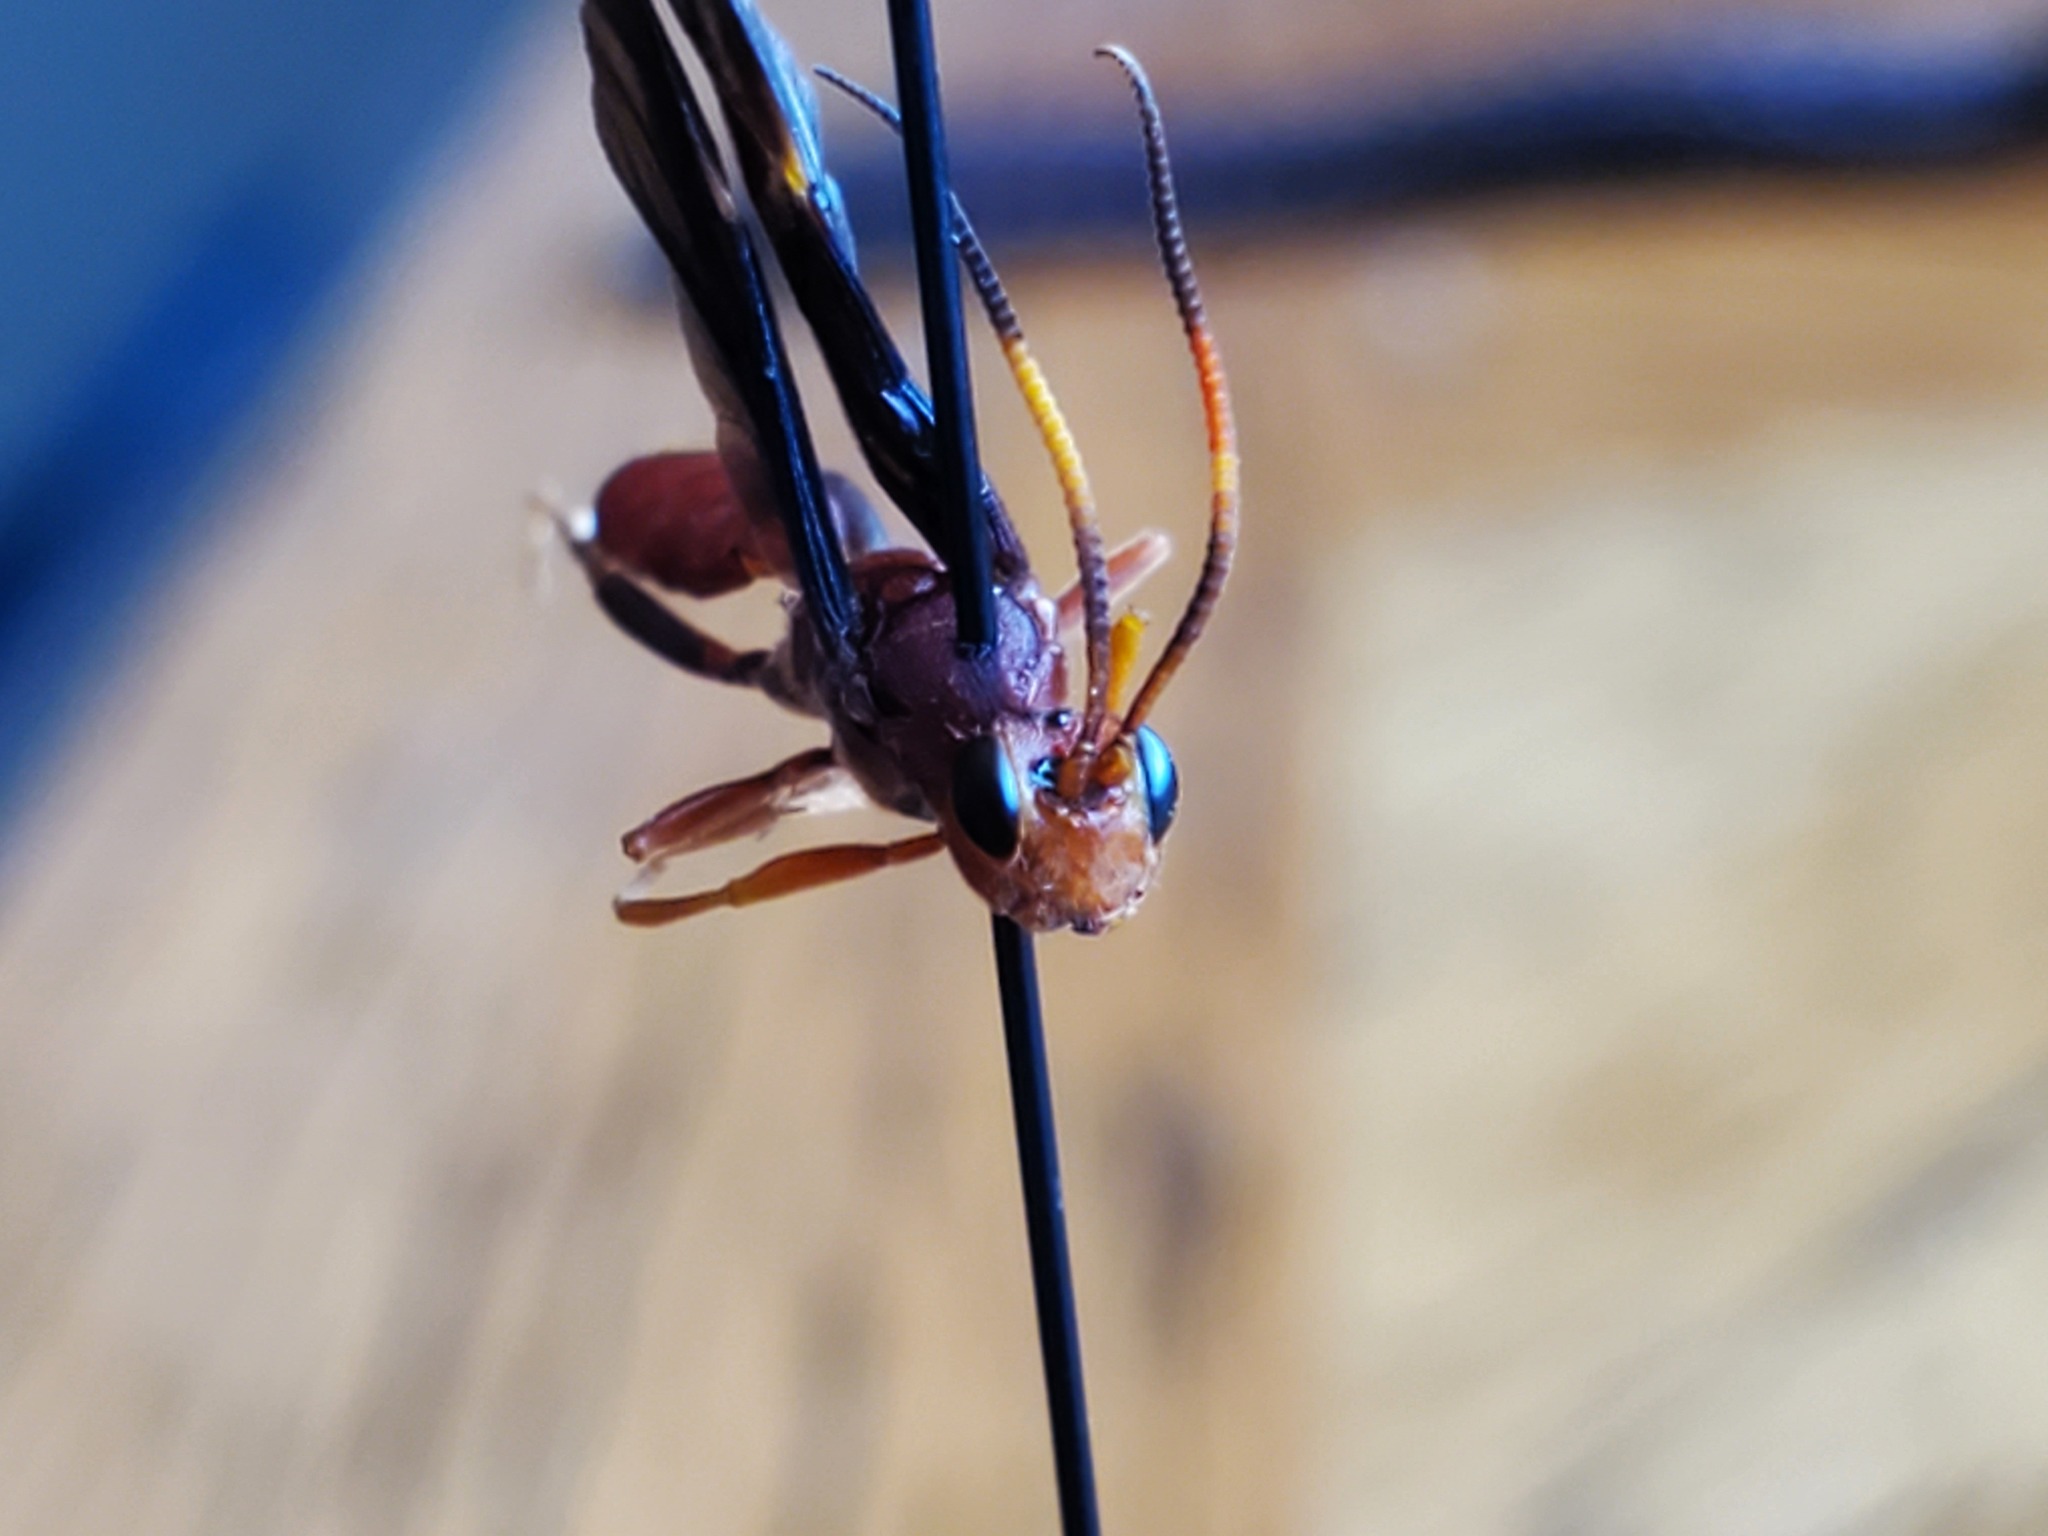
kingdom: Animalia
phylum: Arthropoda
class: Insecta
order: Hymenoptera
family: Ichneumonidae
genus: Trogomorpha
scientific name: Trogomorpha trogiformis
